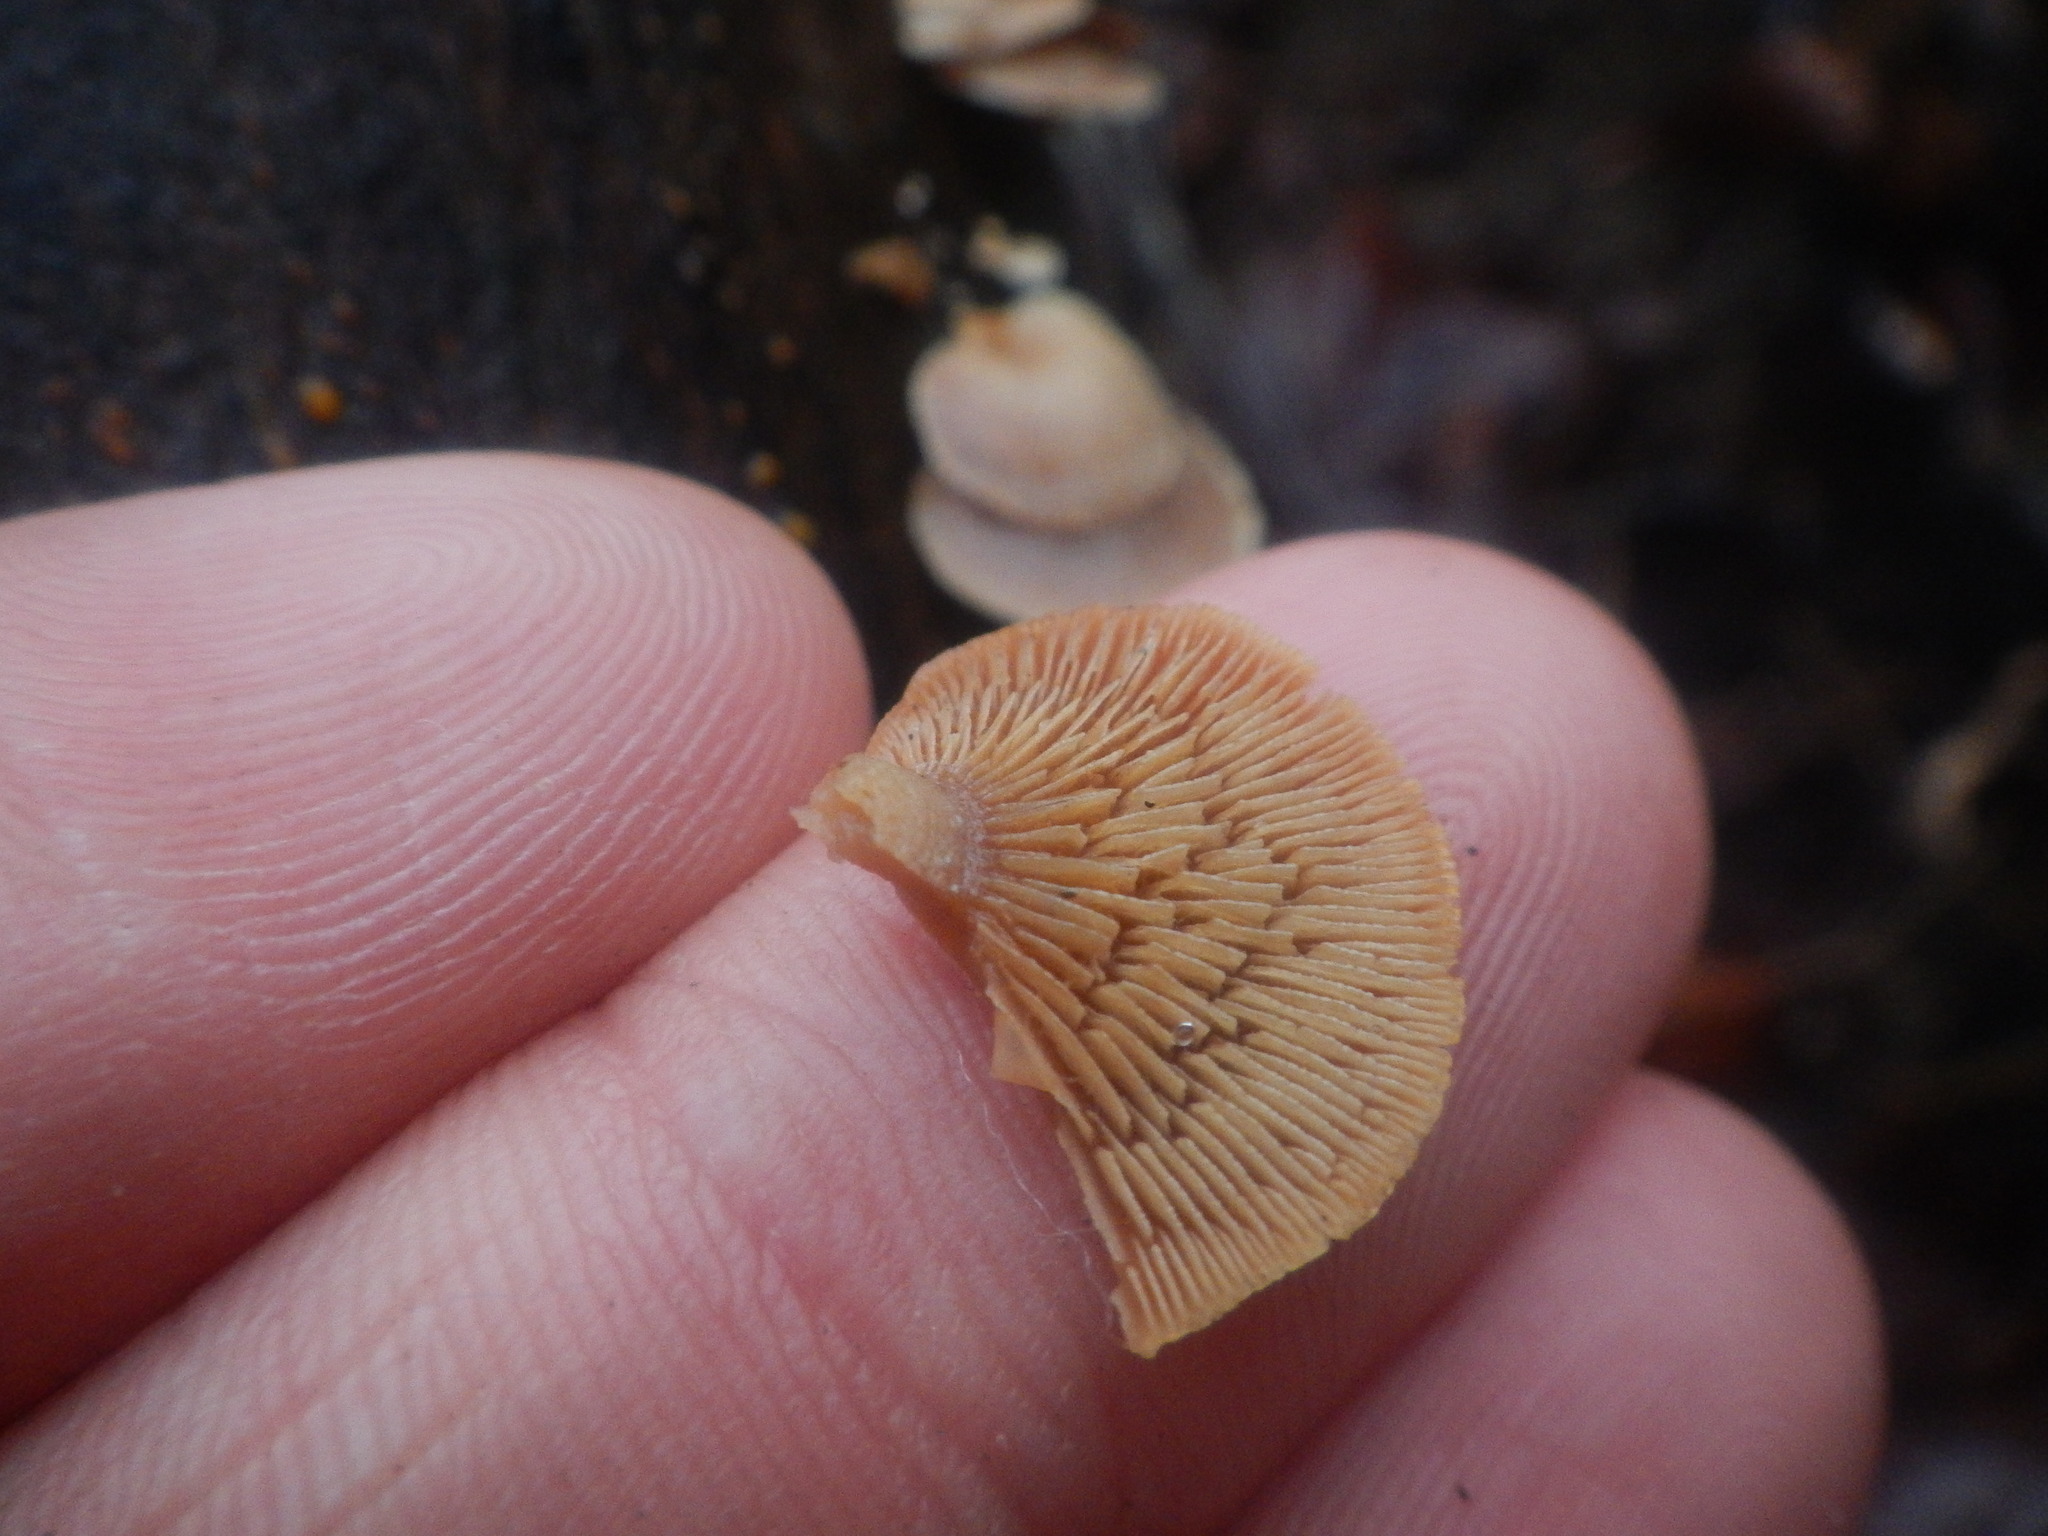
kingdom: Fungi
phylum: Basidiomycota
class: Agaricomycetes
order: Agaricales
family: Mycenaceae
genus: Panellus
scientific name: Panellus stipticus
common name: Bitter oysterling
